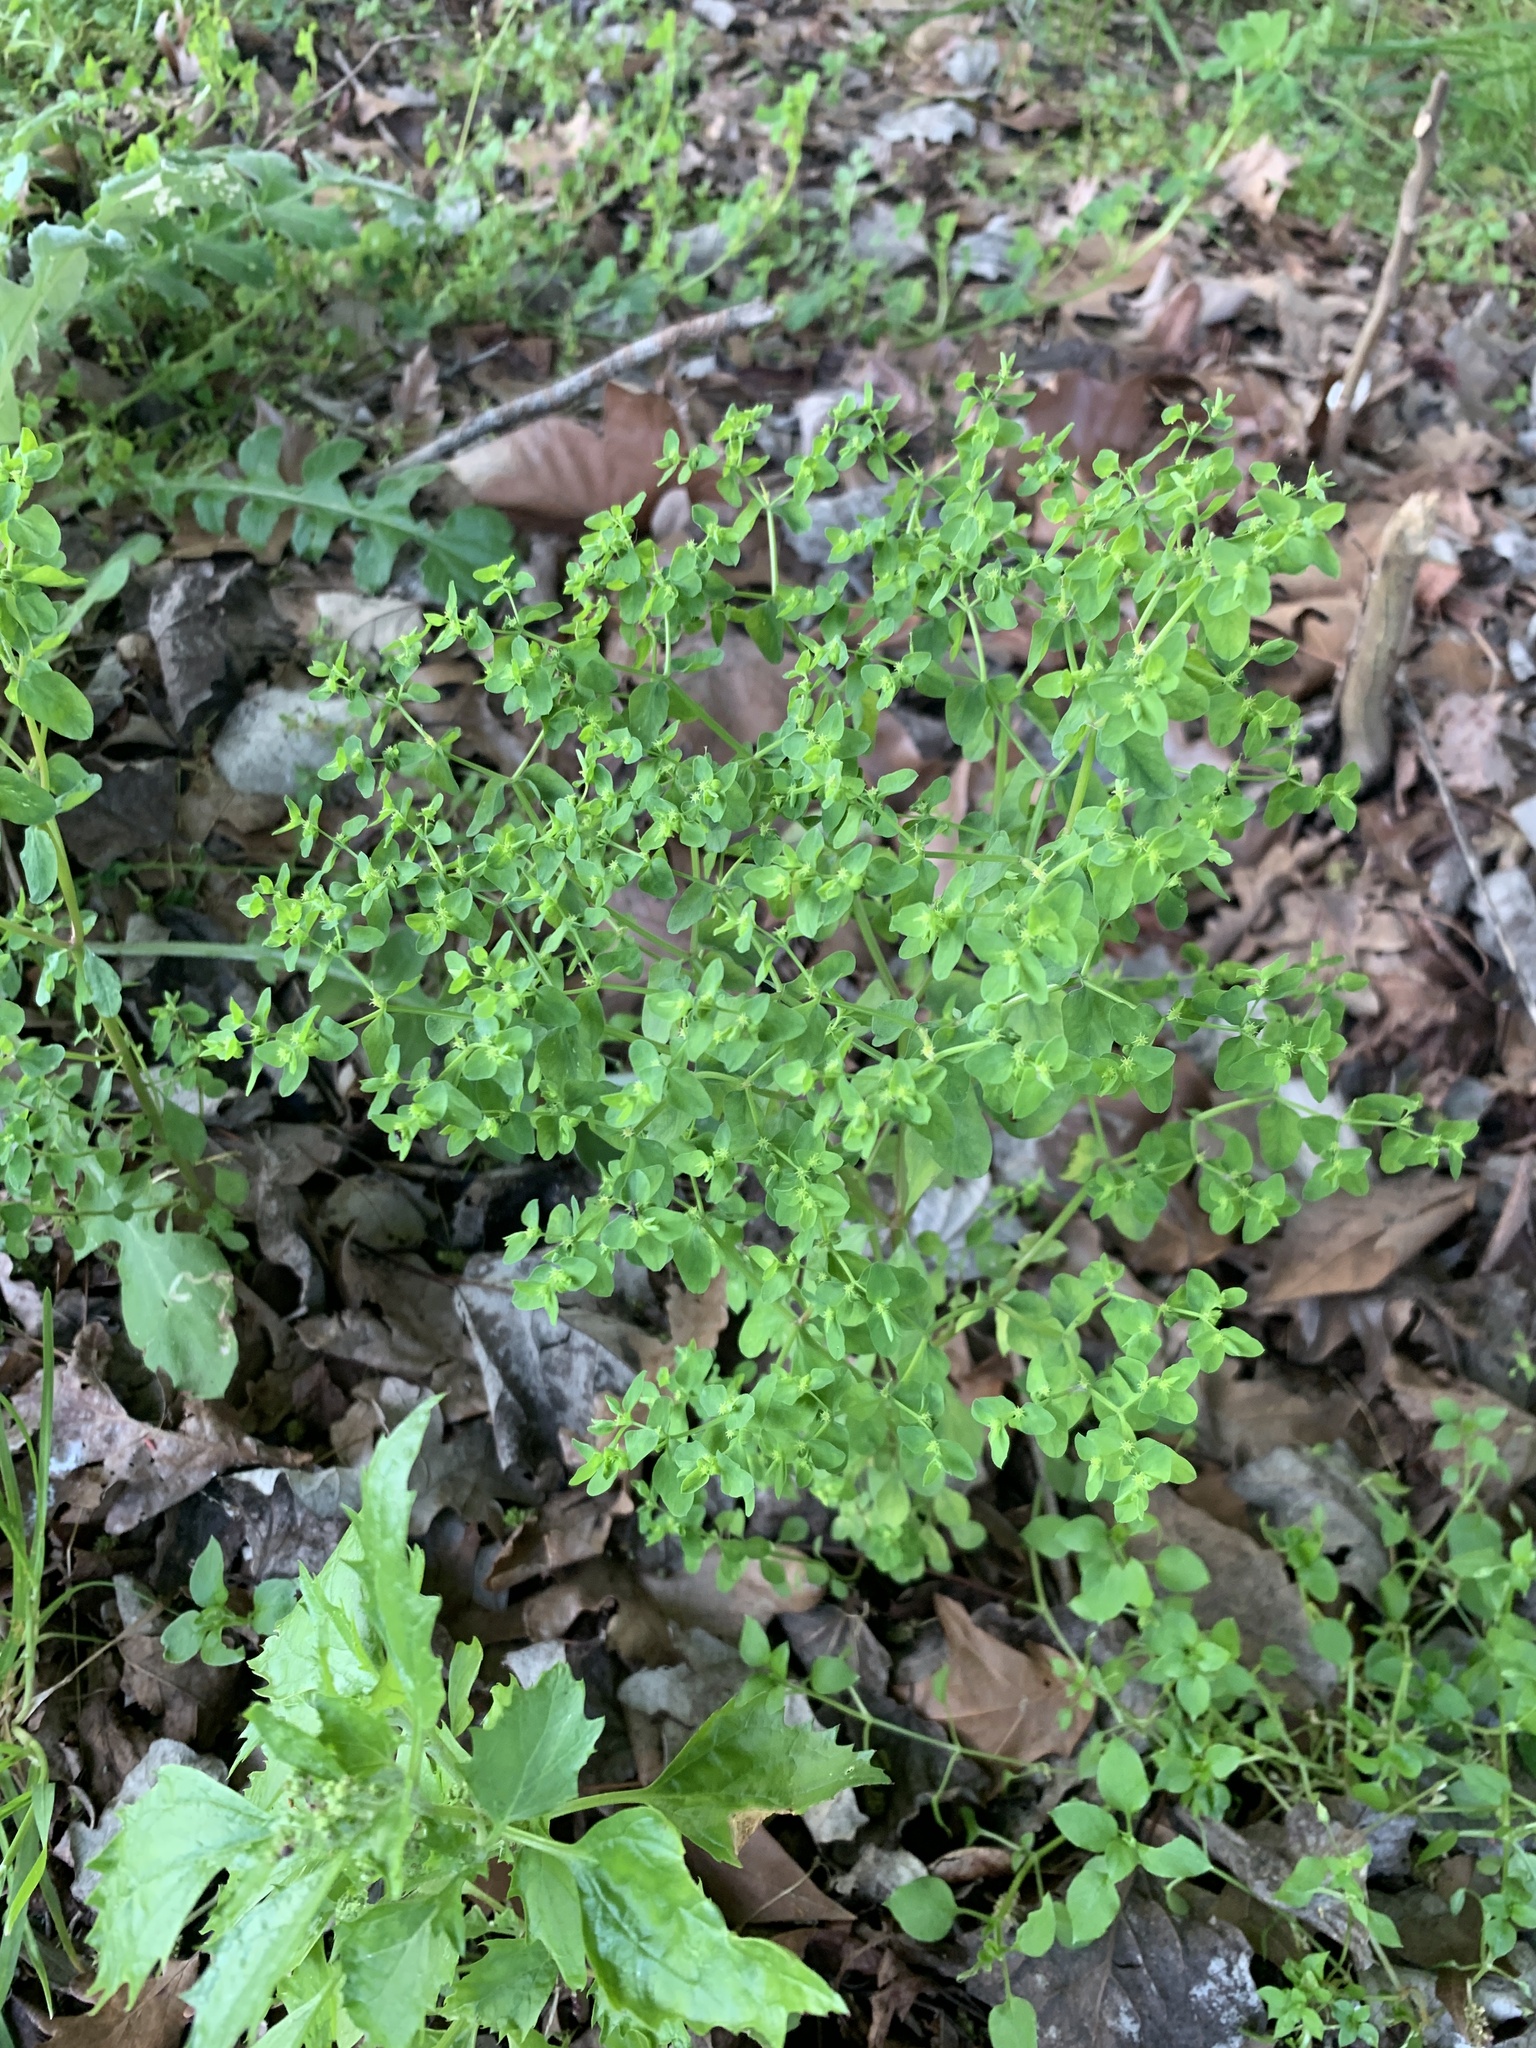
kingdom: Plantae
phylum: Tracheophyta
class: Magnoliopsida
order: Malpighiales
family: Euphorbiaceae
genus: Euphorbia
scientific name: Euphorbia peplus
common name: Petty spurge
